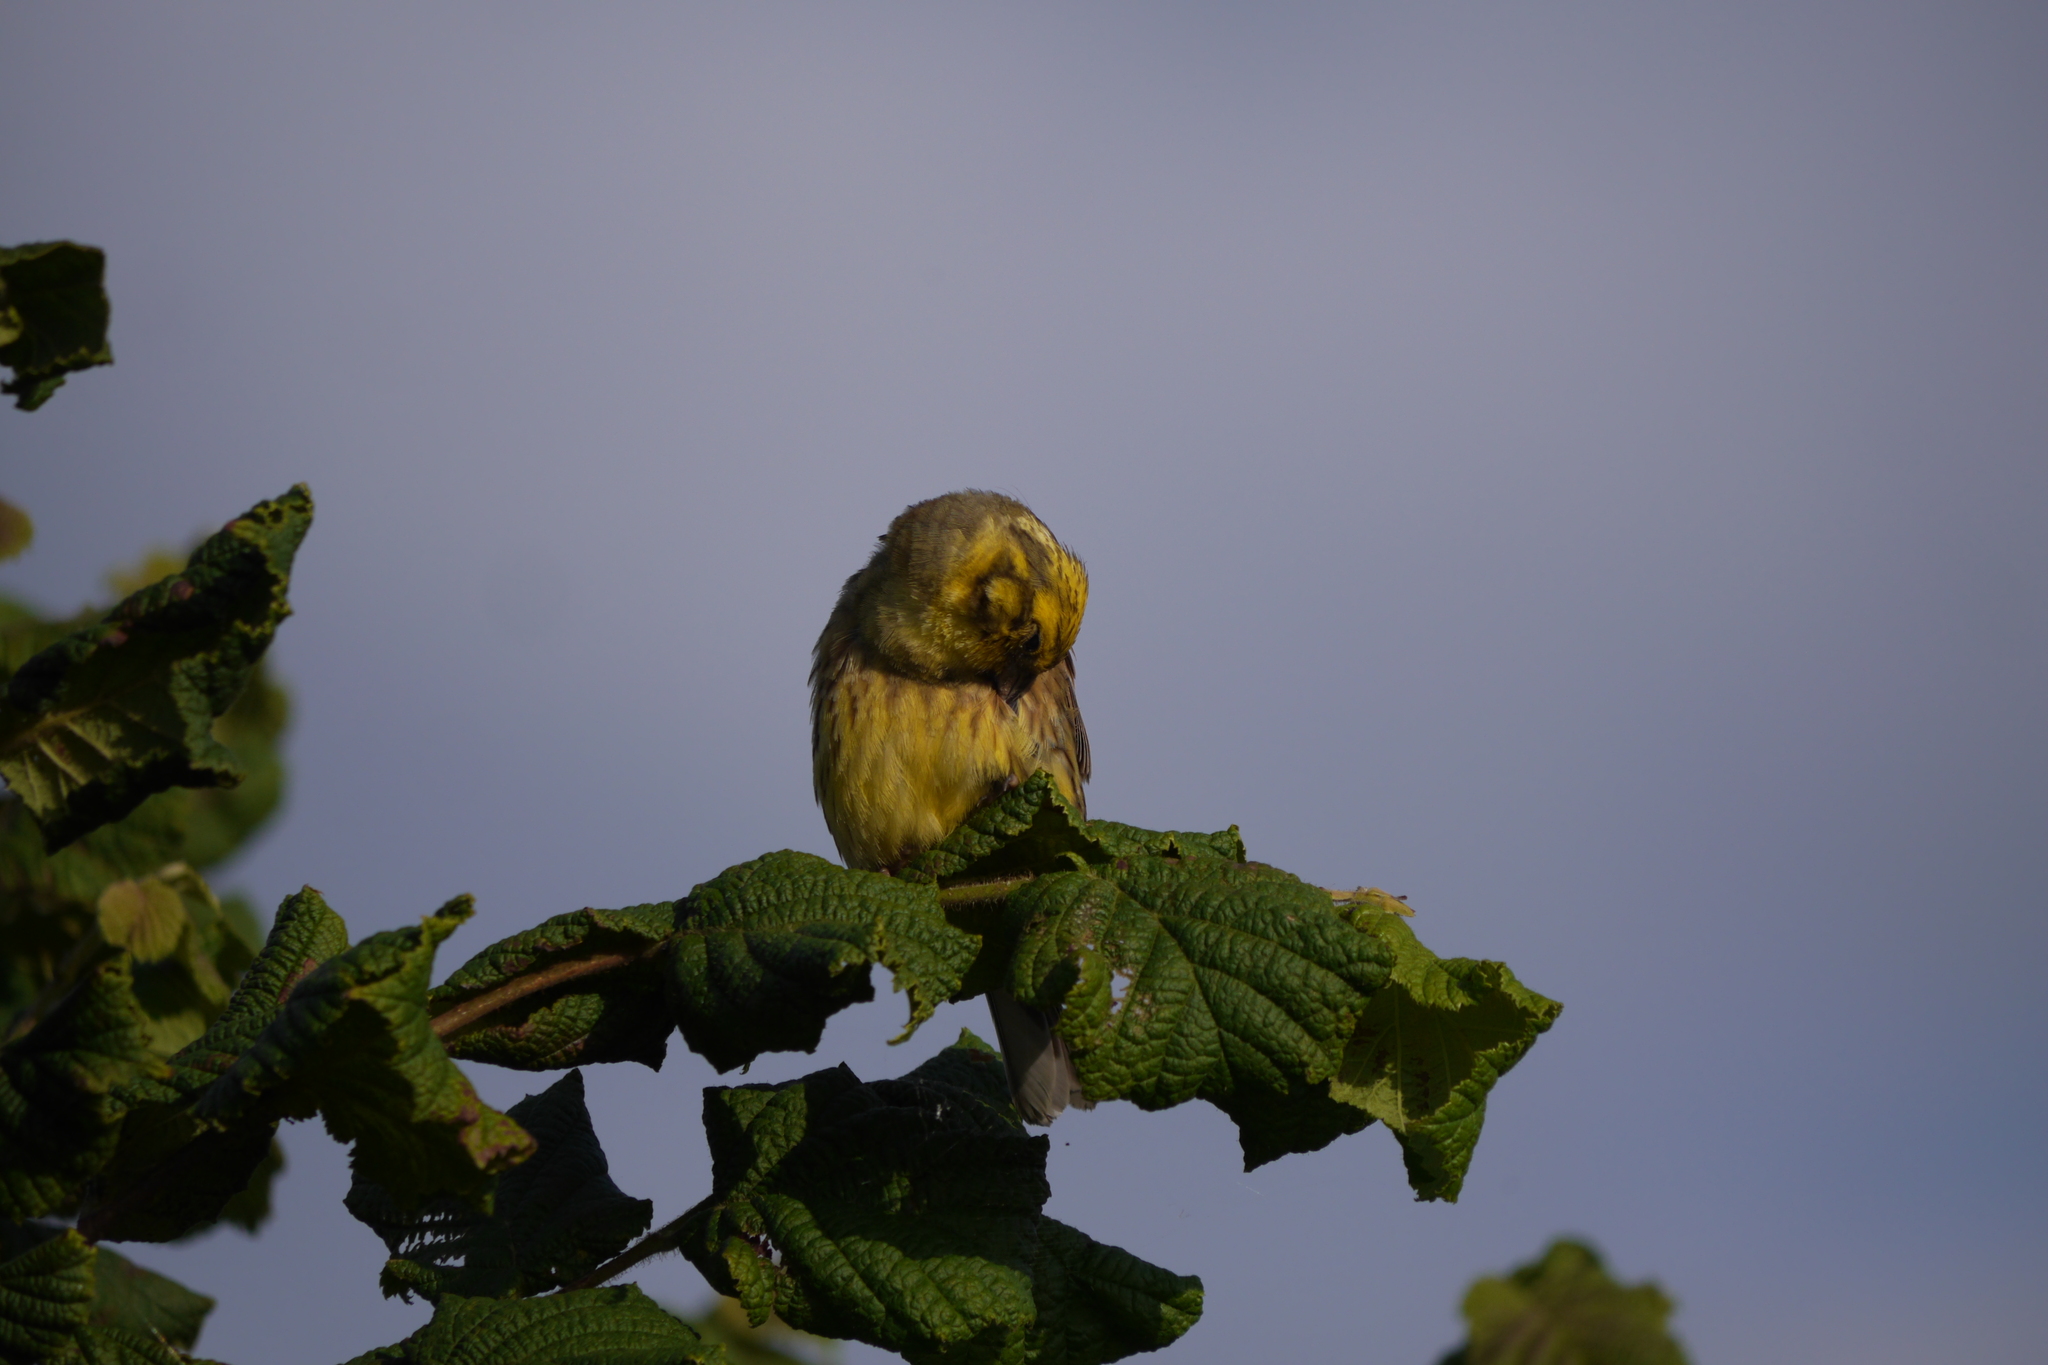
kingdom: Animalia
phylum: Chordata
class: Aves
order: Passeriformes
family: Emberizidae
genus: Emberiza
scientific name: Emberiza citrinella
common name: Yellowhammer
